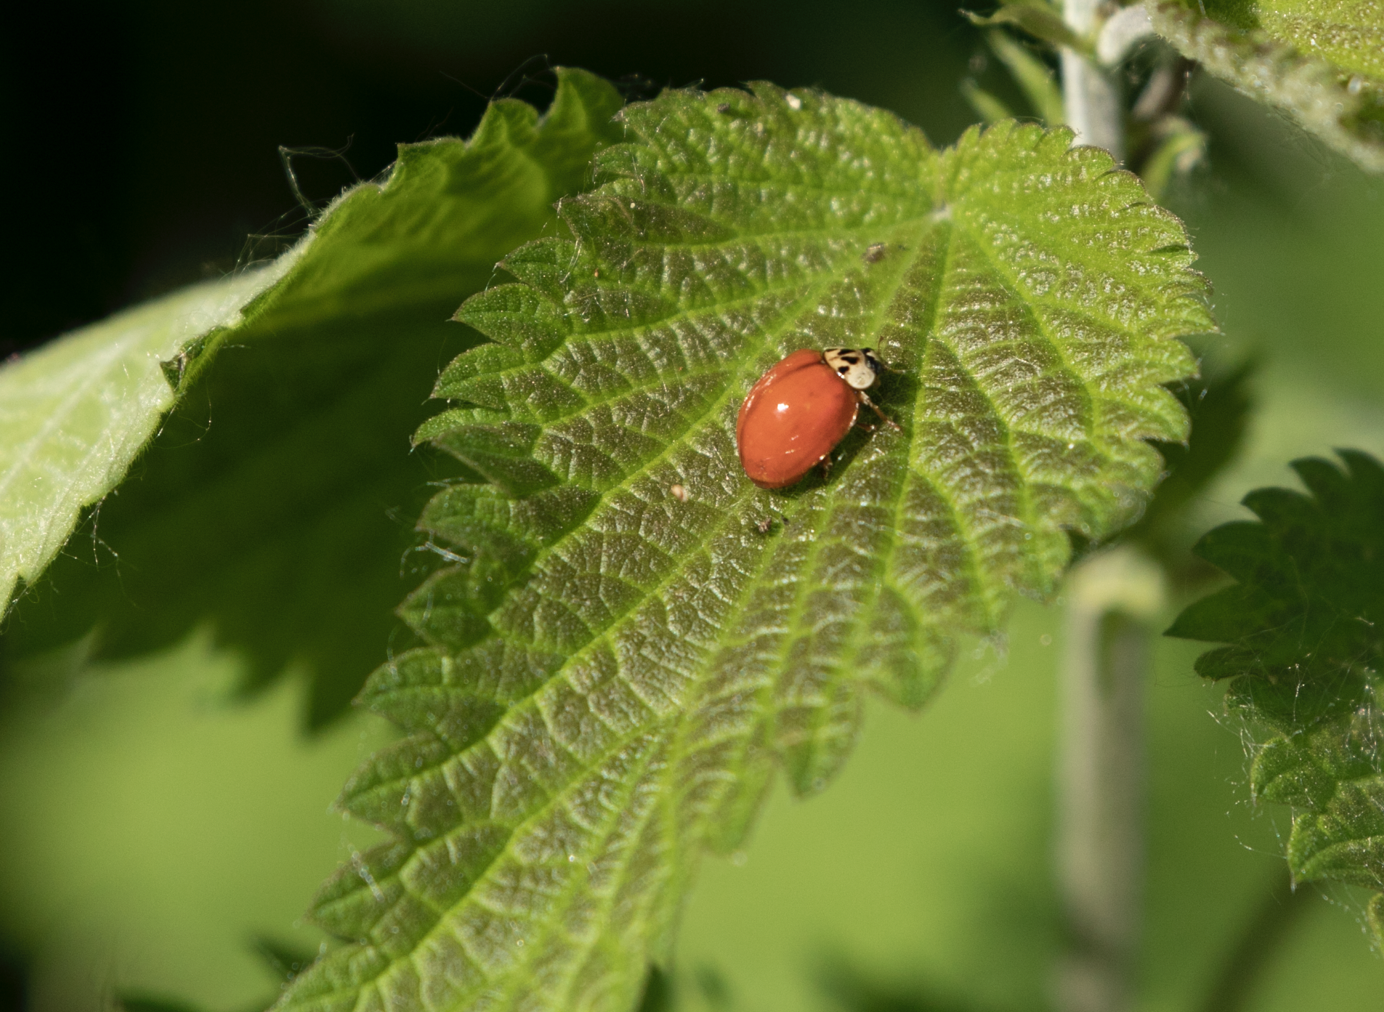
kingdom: Animalia
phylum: Arthropoda
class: Insecta
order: Coleoptera
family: Coccinellidae
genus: Harmonia
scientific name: Harmonia axyridis
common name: Harlequin ladybird
